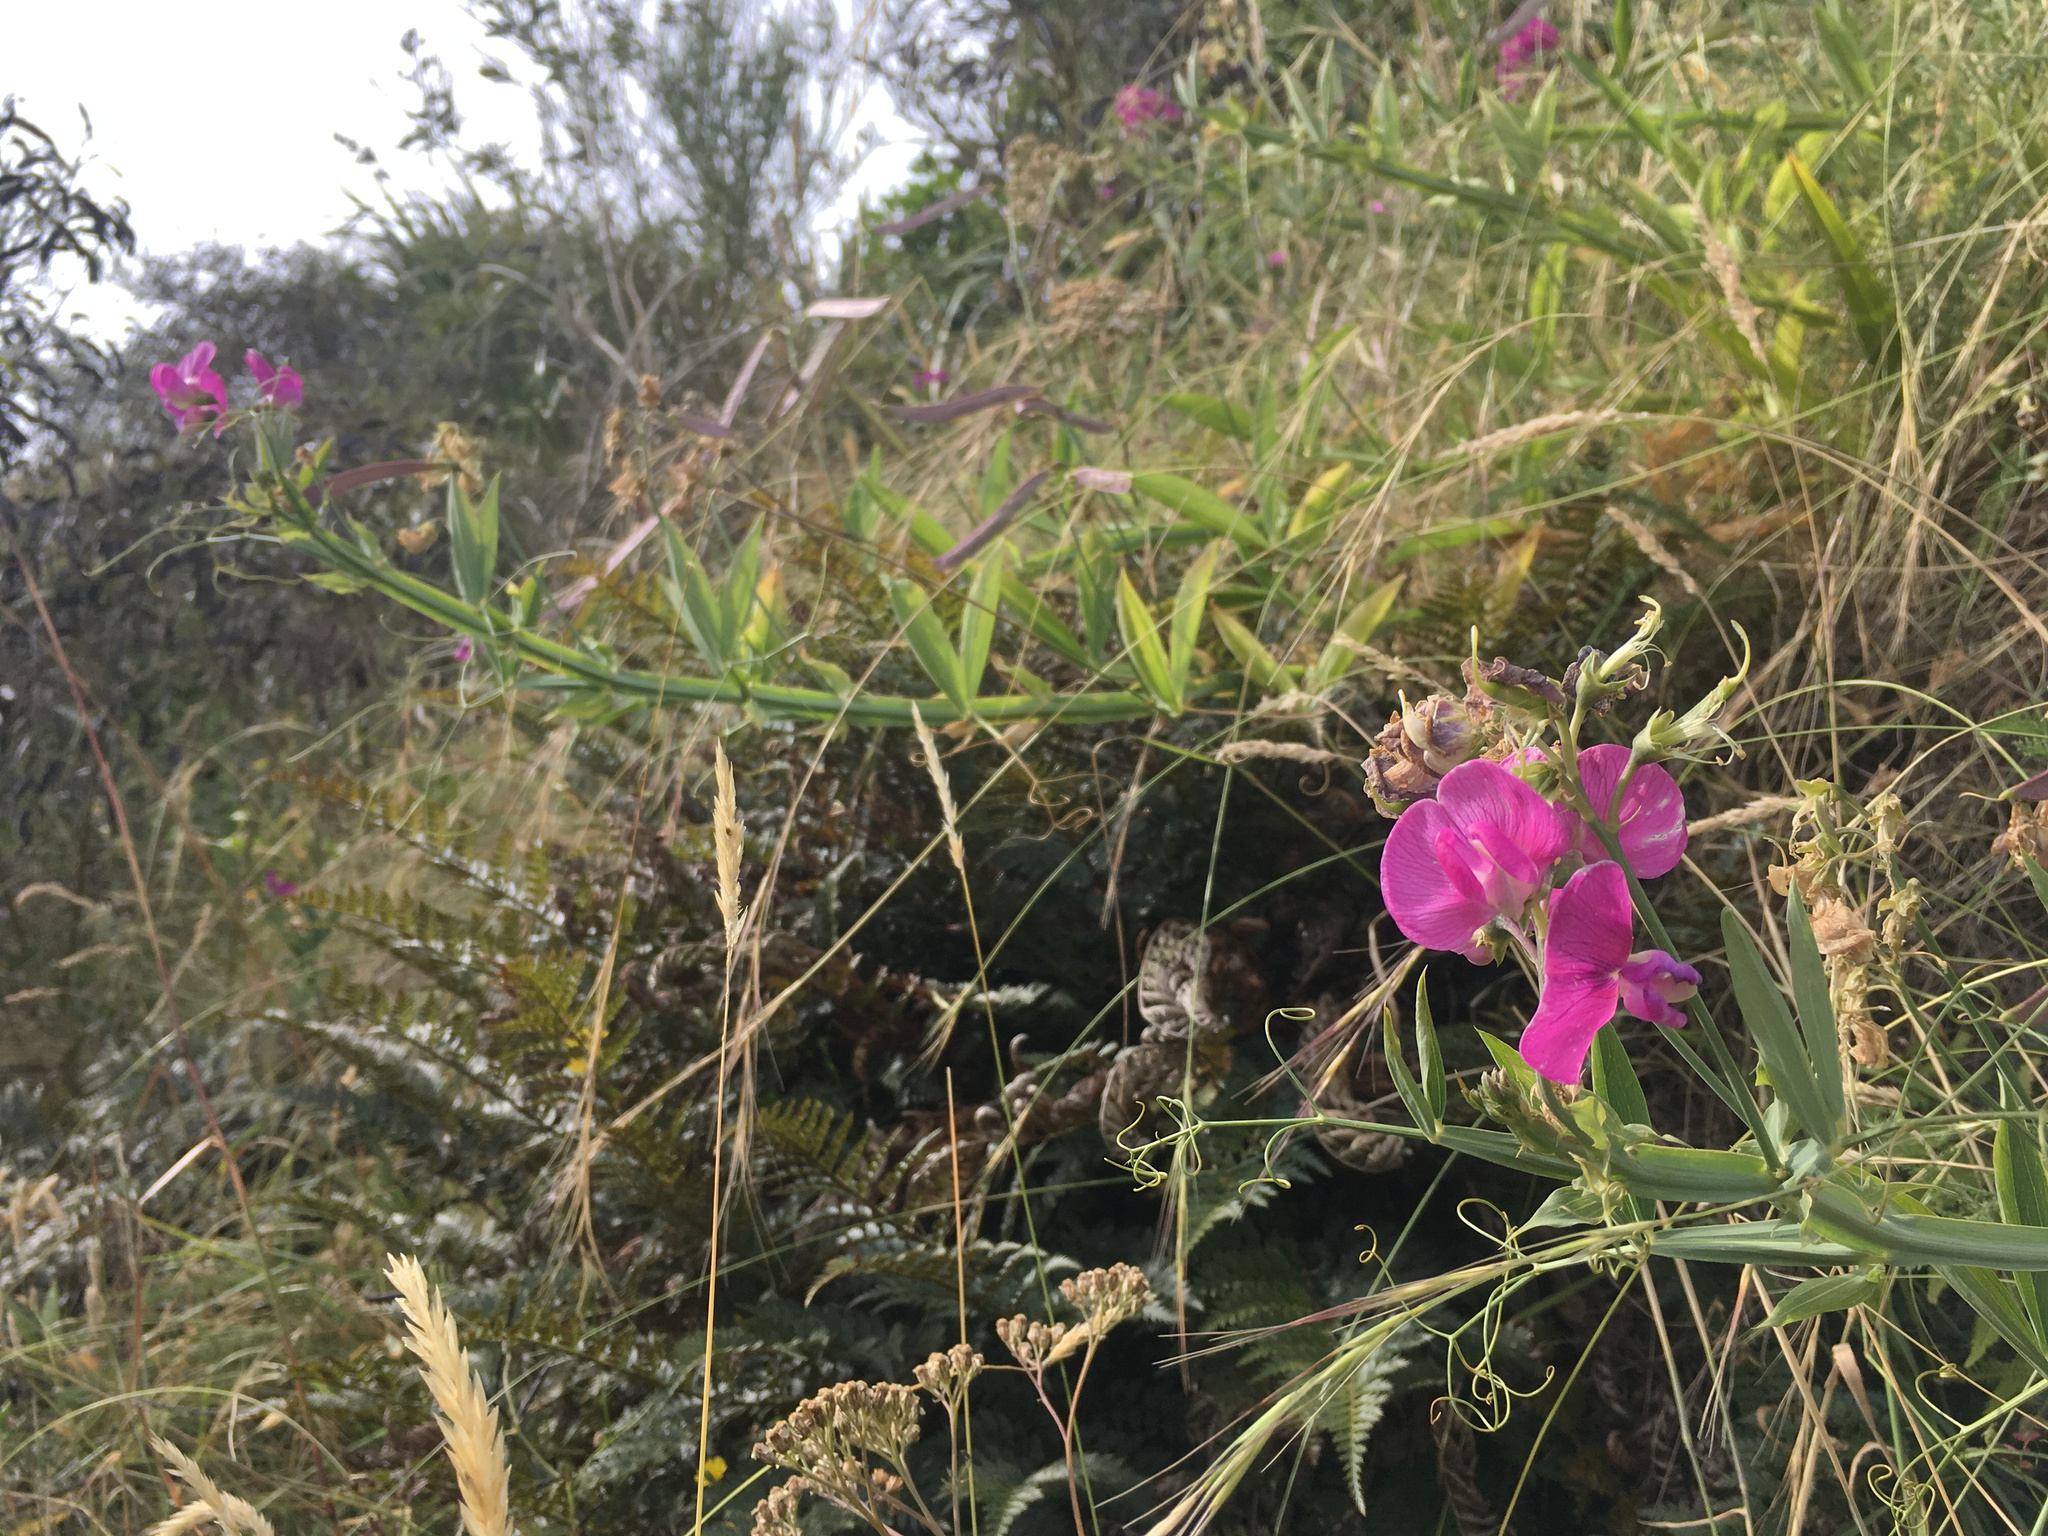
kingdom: Plantae
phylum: Tracheophyta
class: Magnoliopsida
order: Fabales
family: Fabaceae
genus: Lathyrus
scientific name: Lathyrus latifolius
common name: Perennial pea
